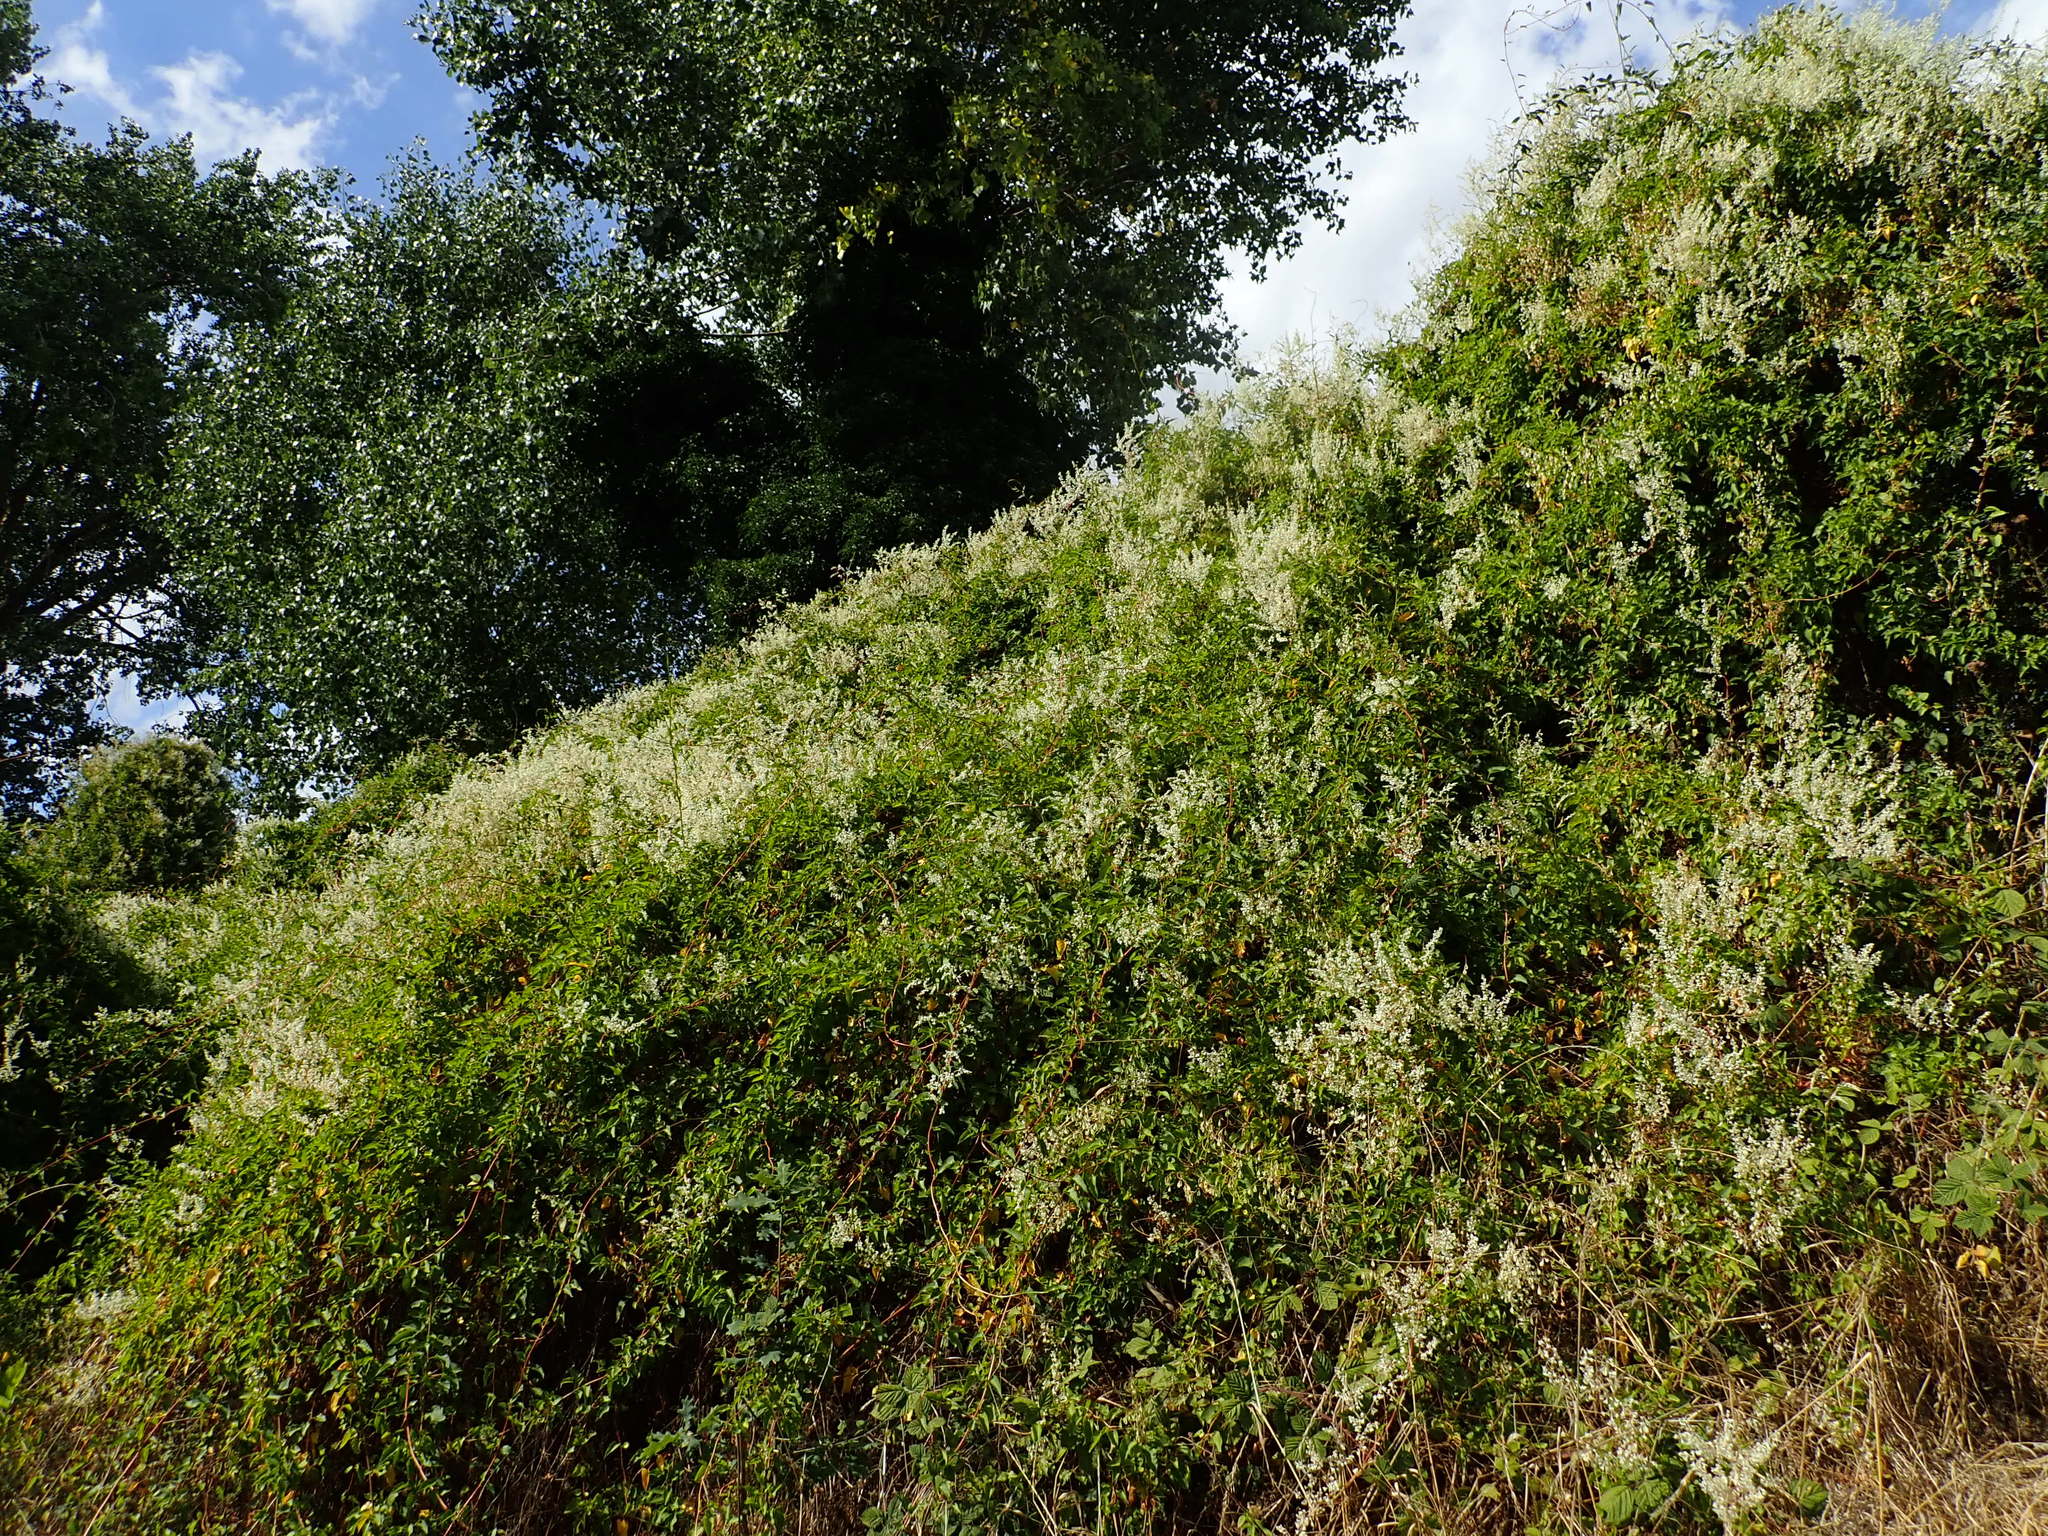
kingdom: Plantae
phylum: Tracheophyta
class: Magnoliopsida
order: Caryophyllales
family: Polygonaceae
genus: Fallopia
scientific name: Fallopia baldschuanica
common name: Russian-vine
